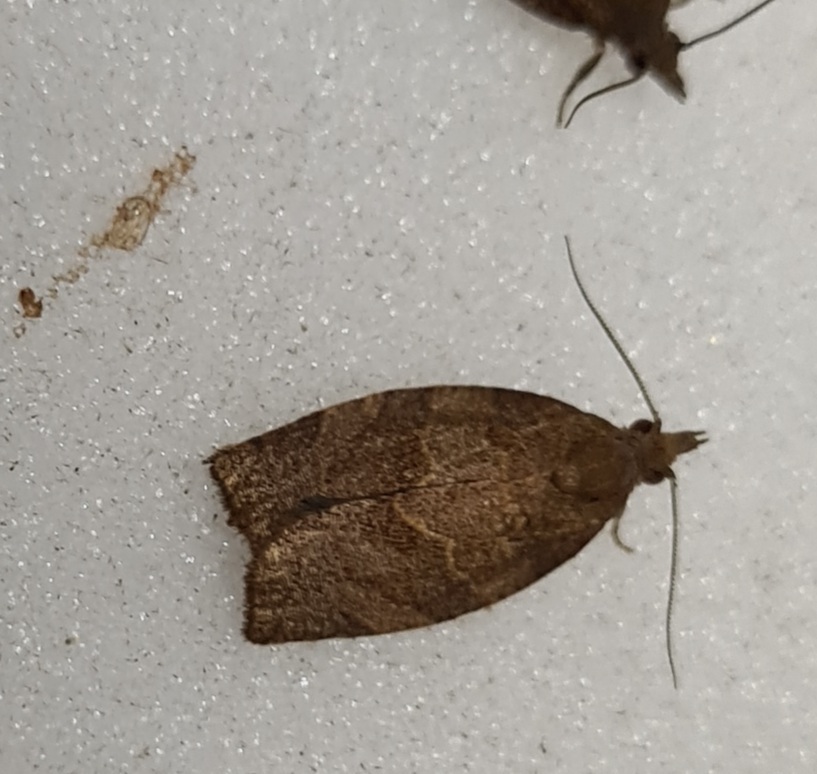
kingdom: Animalia
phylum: Arthropoda
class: Insecta
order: Lepidoptera
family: Tortricidae
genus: Pandemis
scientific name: Pandemis heparana
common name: Dark fruit-tree tortrix
